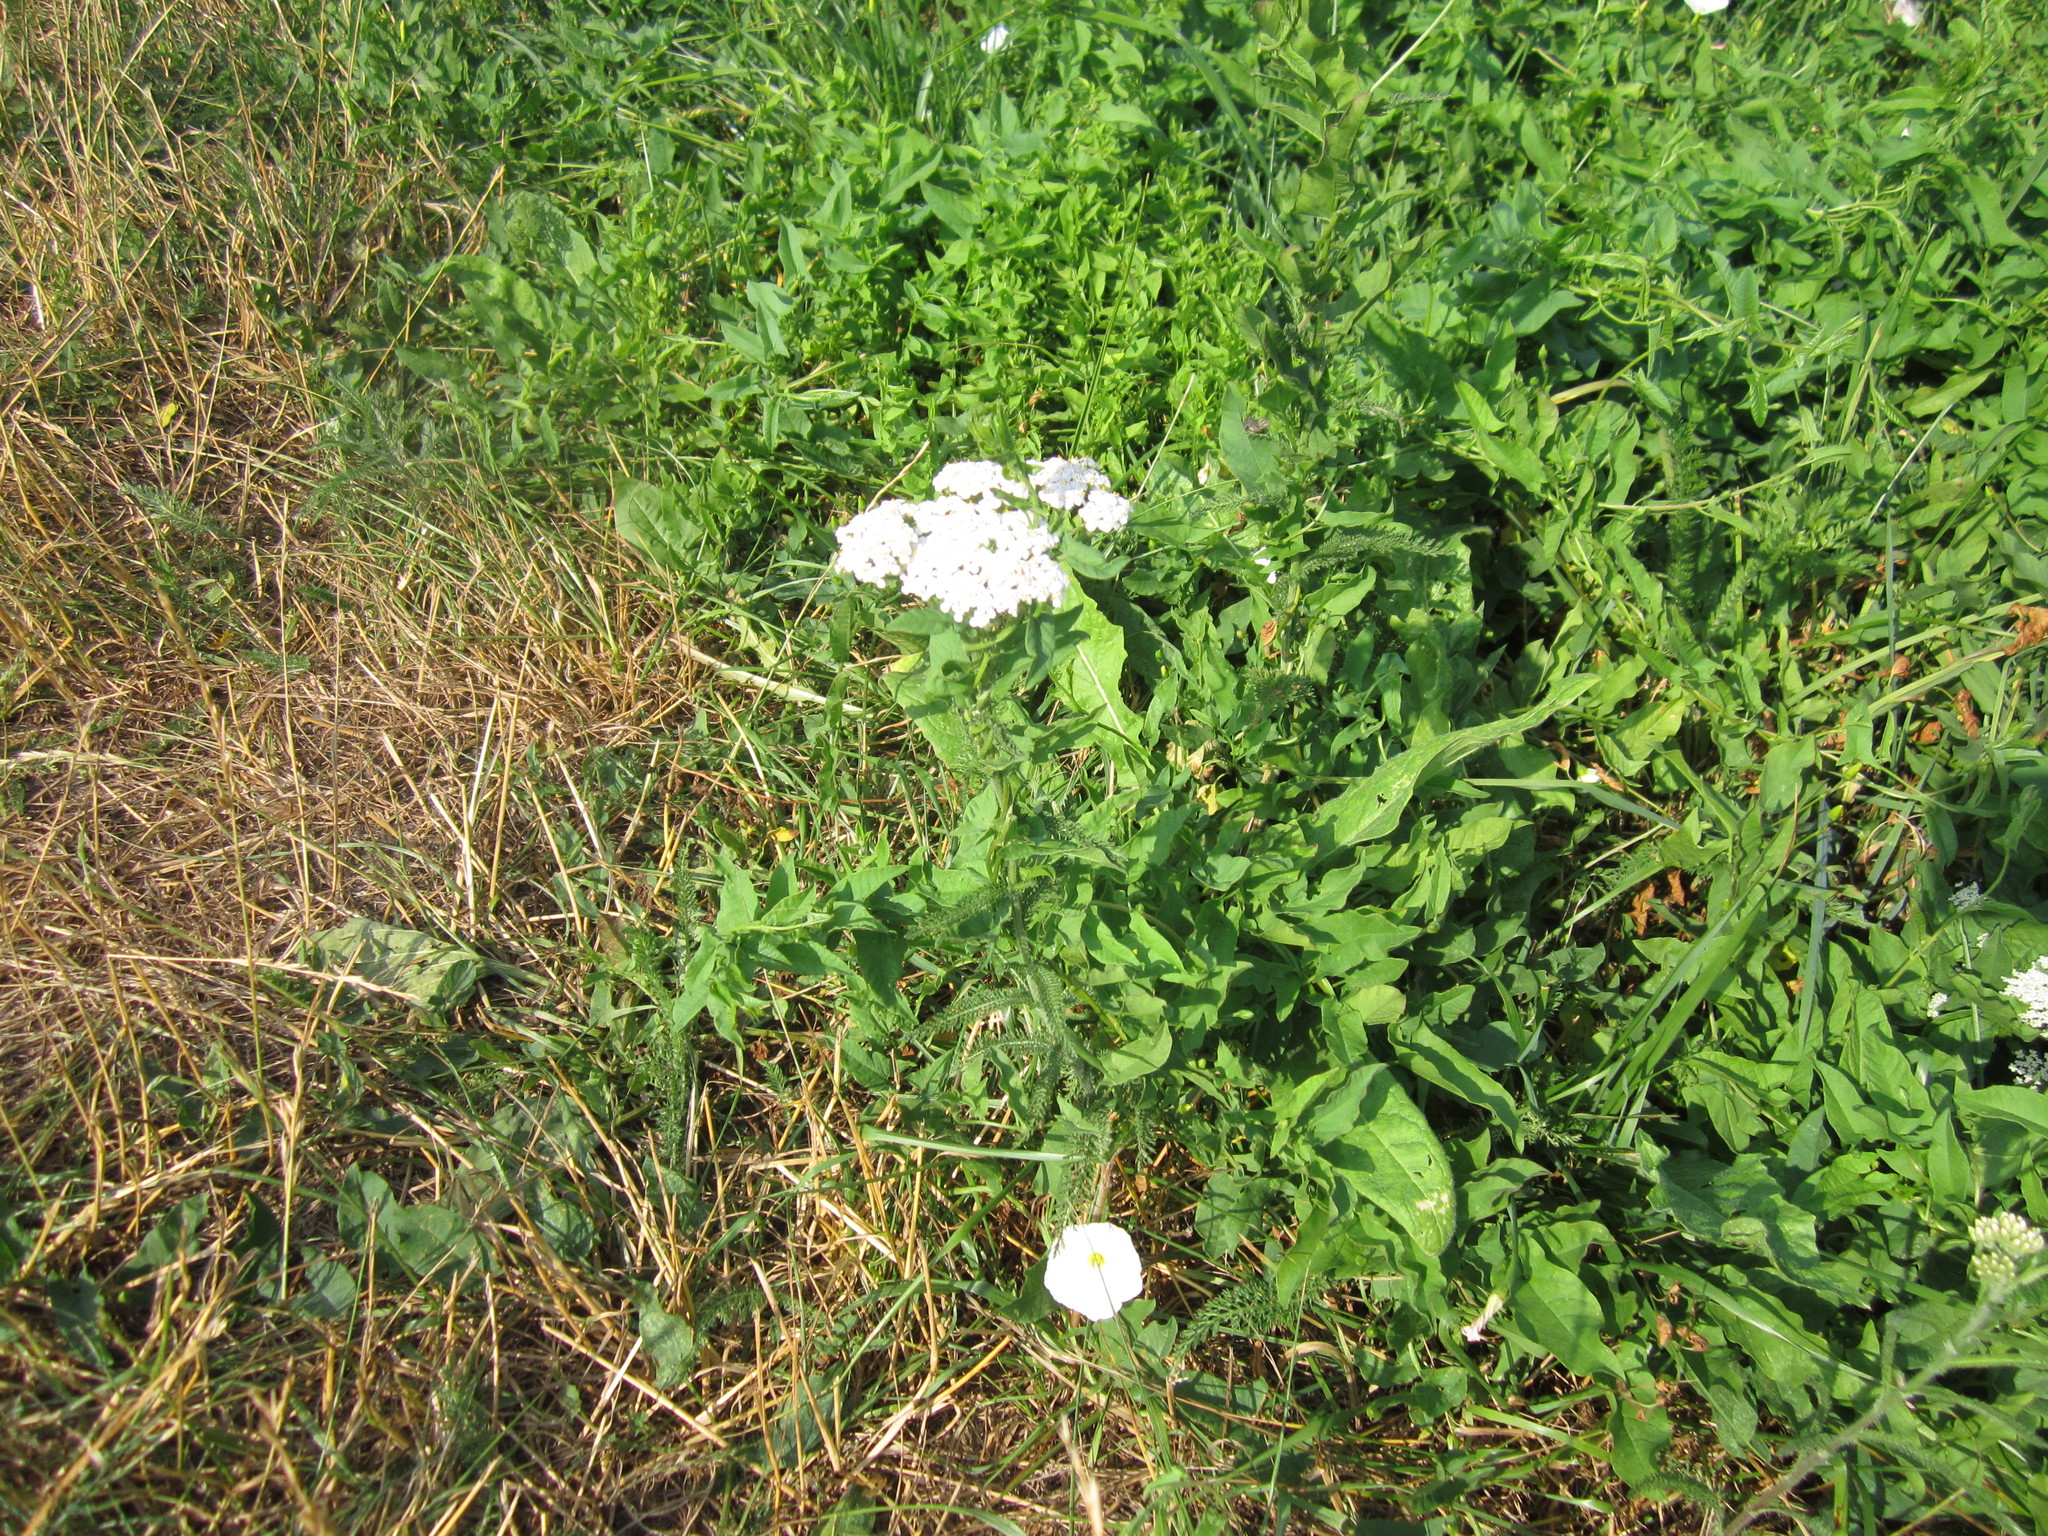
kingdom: Plantae
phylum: Tracheophyta
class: Magnoliopsida
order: Asterales
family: Asteraceae
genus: Achillea
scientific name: Achillea millefolium
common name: Yarrow
